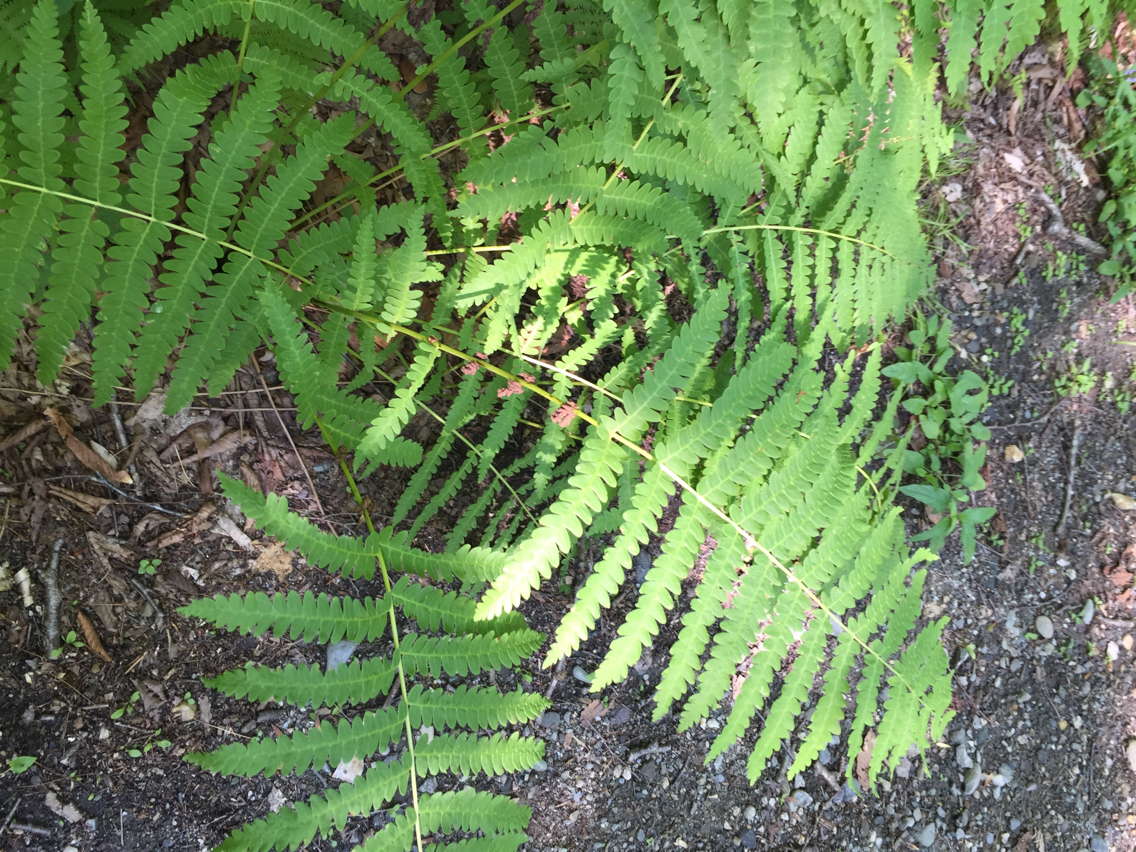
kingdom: Plantae
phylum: Tracheophyta
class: Polypodiopsida
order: Osmundales
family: Osmundaceae
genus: Claytosmunda
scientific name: Claytosmunda claytoniana
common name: Clayton's fern
